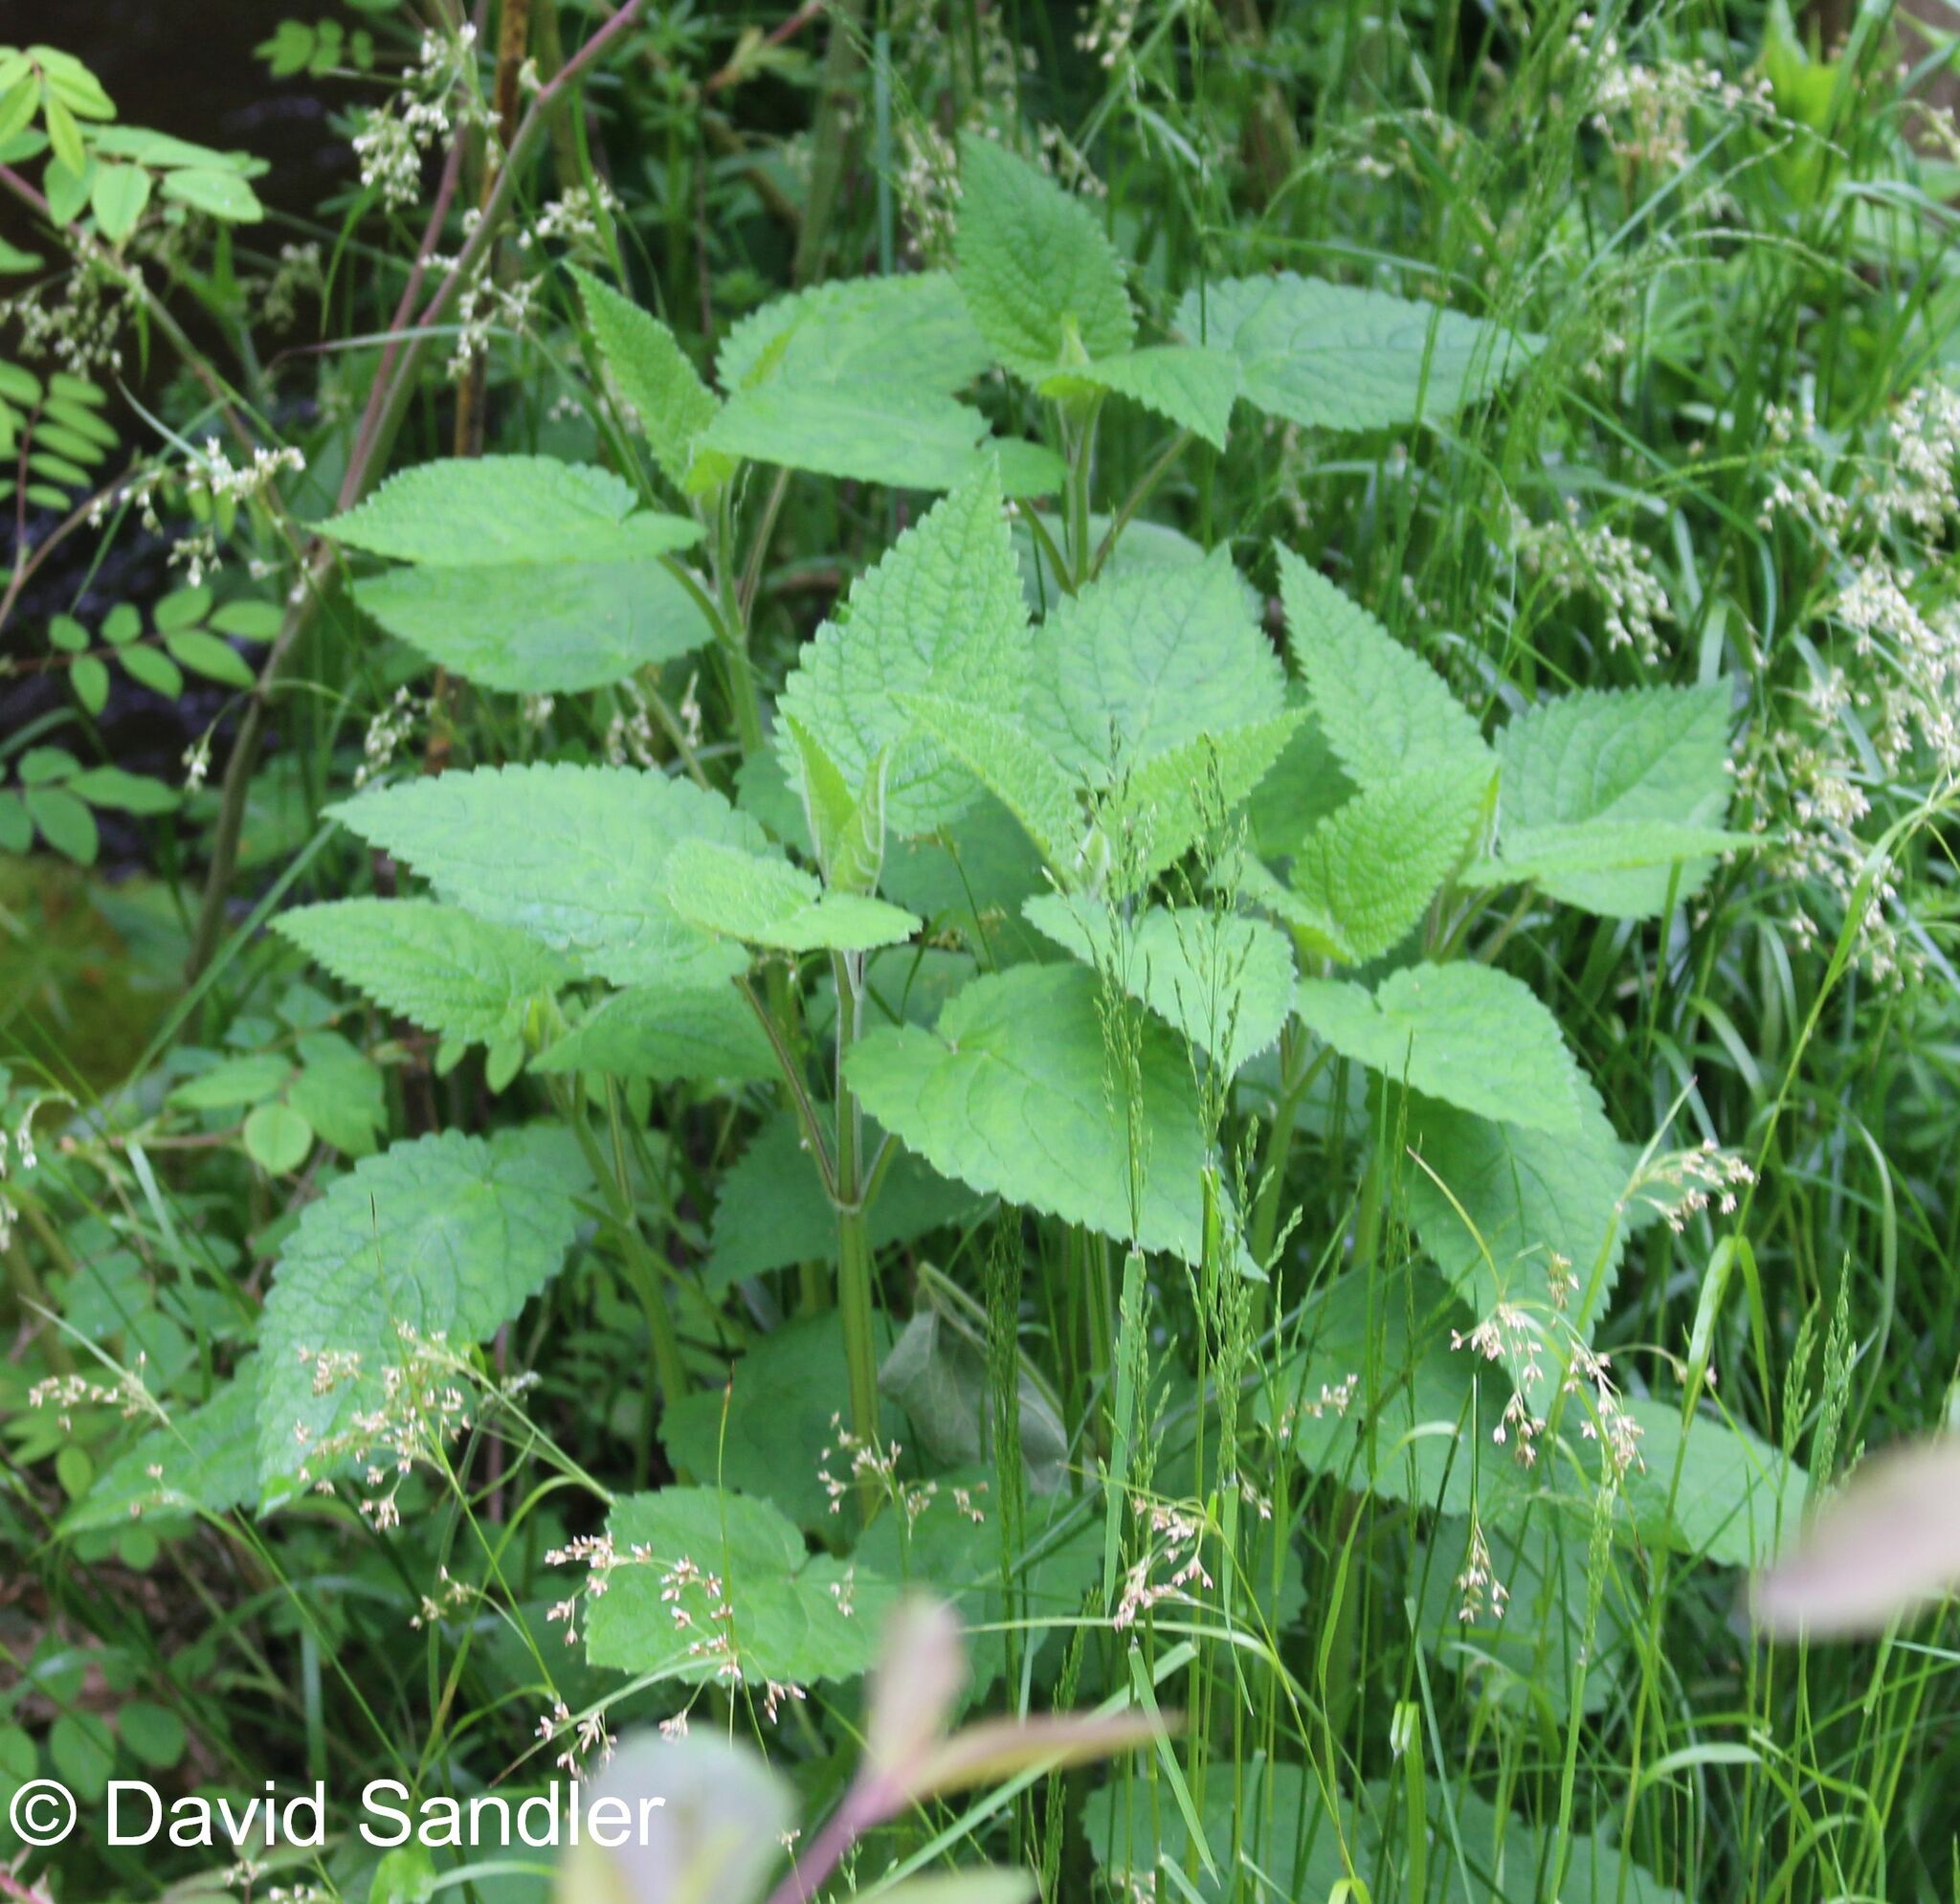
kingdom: Plantae
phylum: Tracheophyta
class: Magnoliopsida
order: Lamiales
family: Lamiaceae
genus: Stachys
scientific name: Stachys sylvatica
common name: Hedge woundwort
